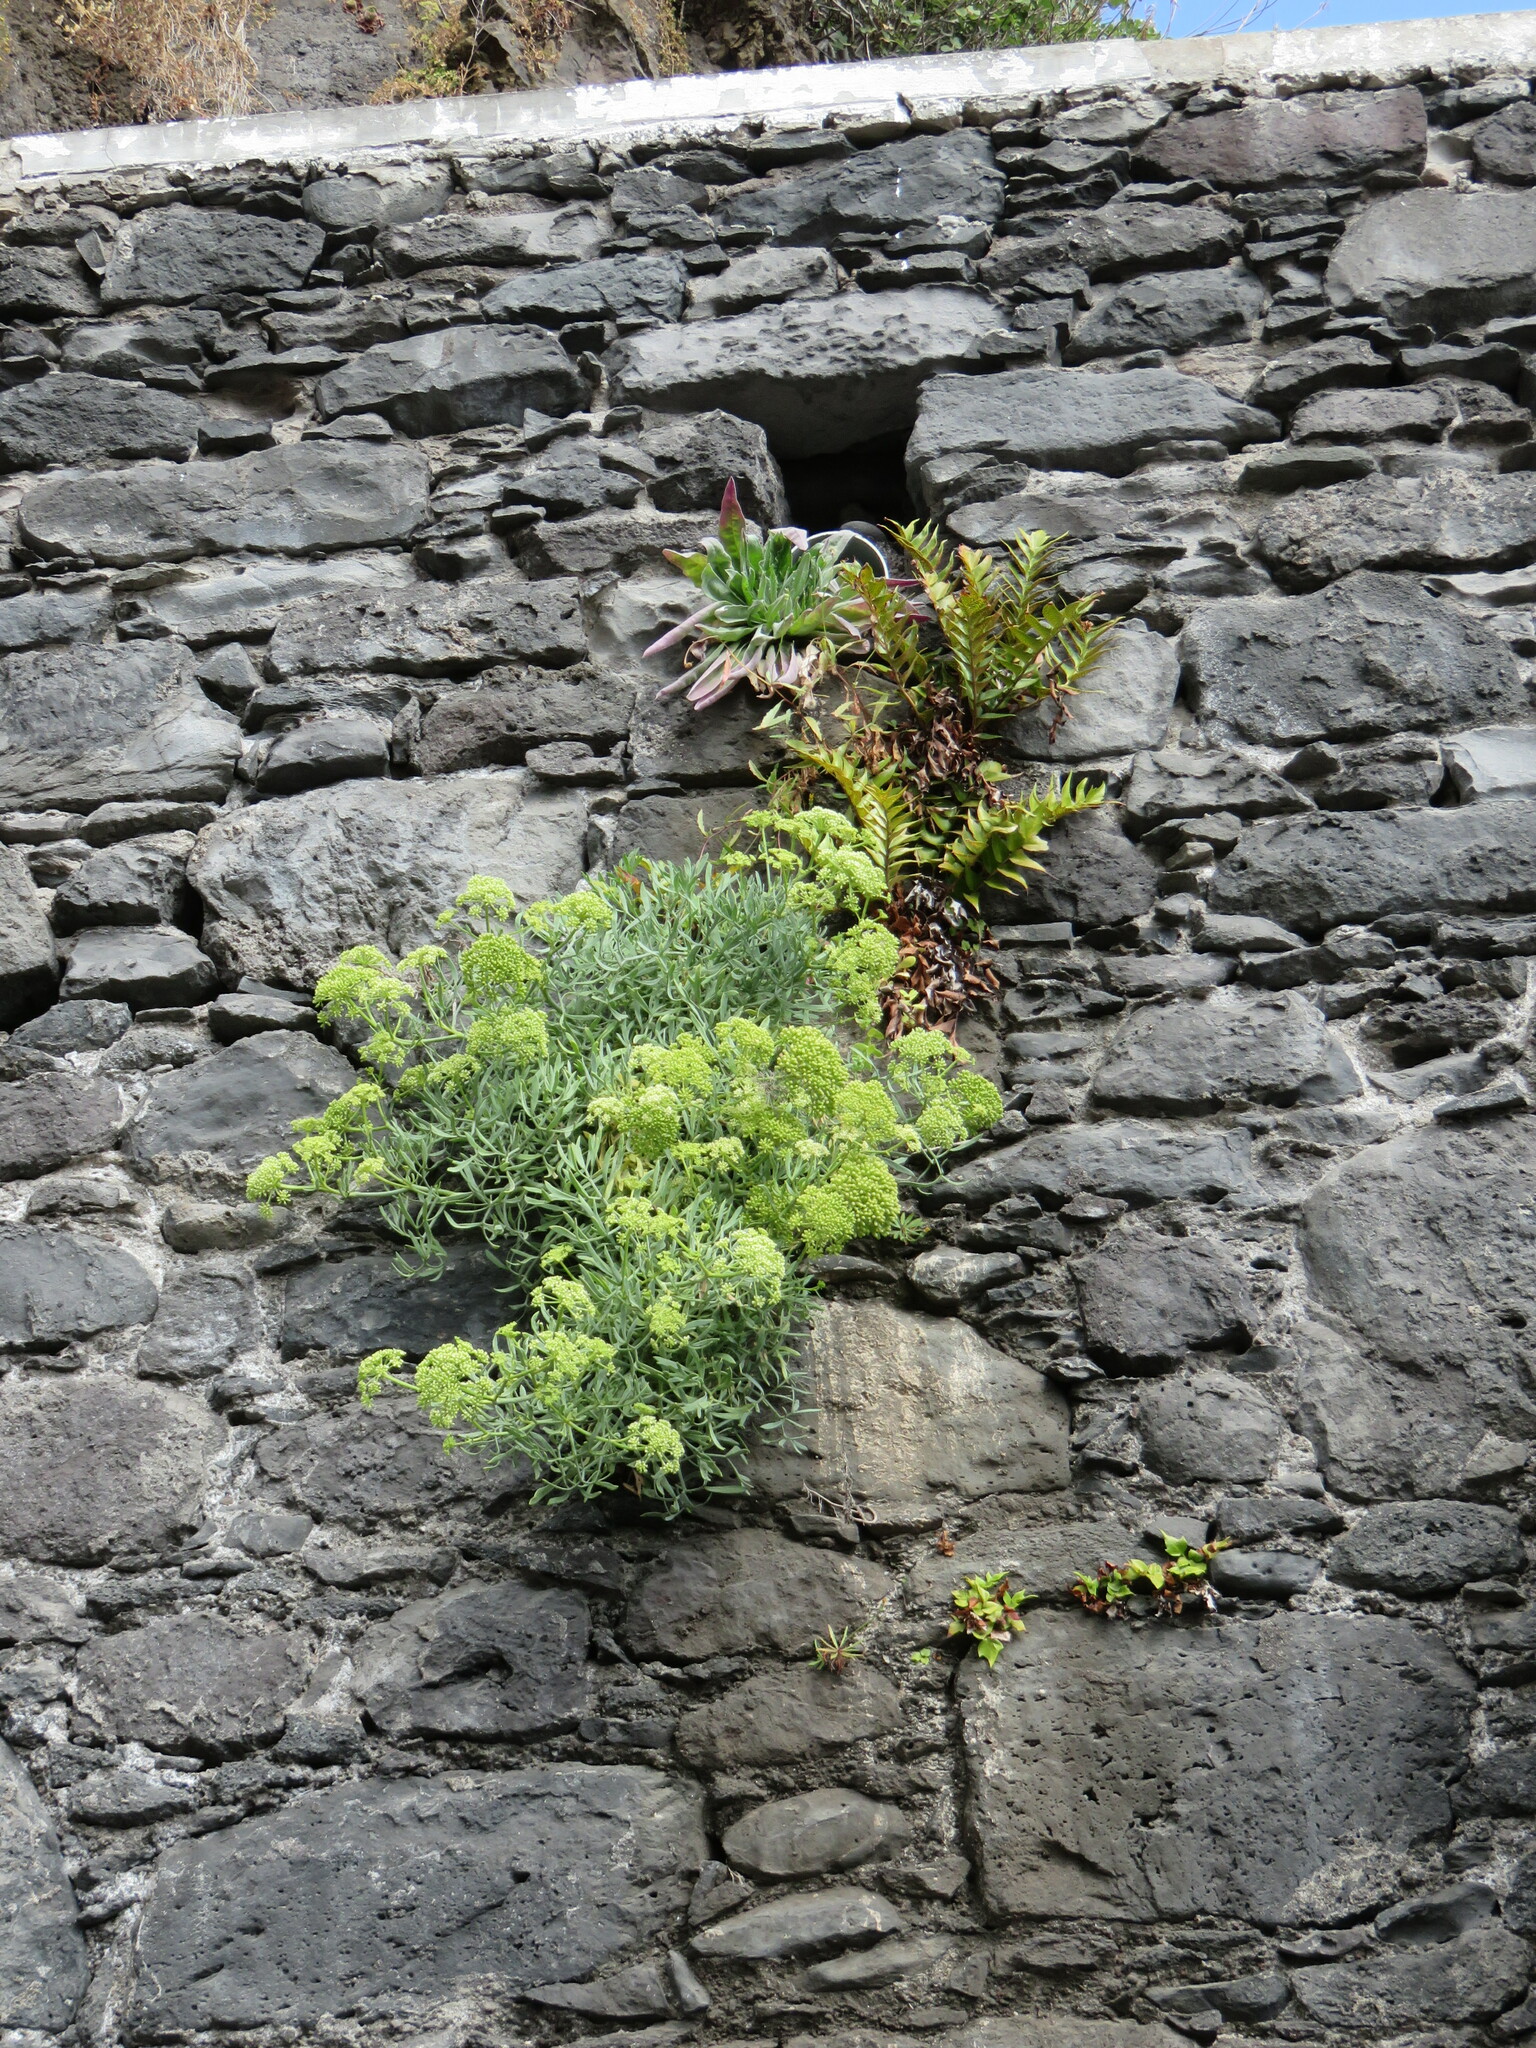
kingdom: Plantae
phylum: Tracheophyta
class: Magnoliopsida
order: Apiales
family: Apiaceae
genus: Crithmum
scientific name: Crithmum maritimum
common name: Rock samphire
